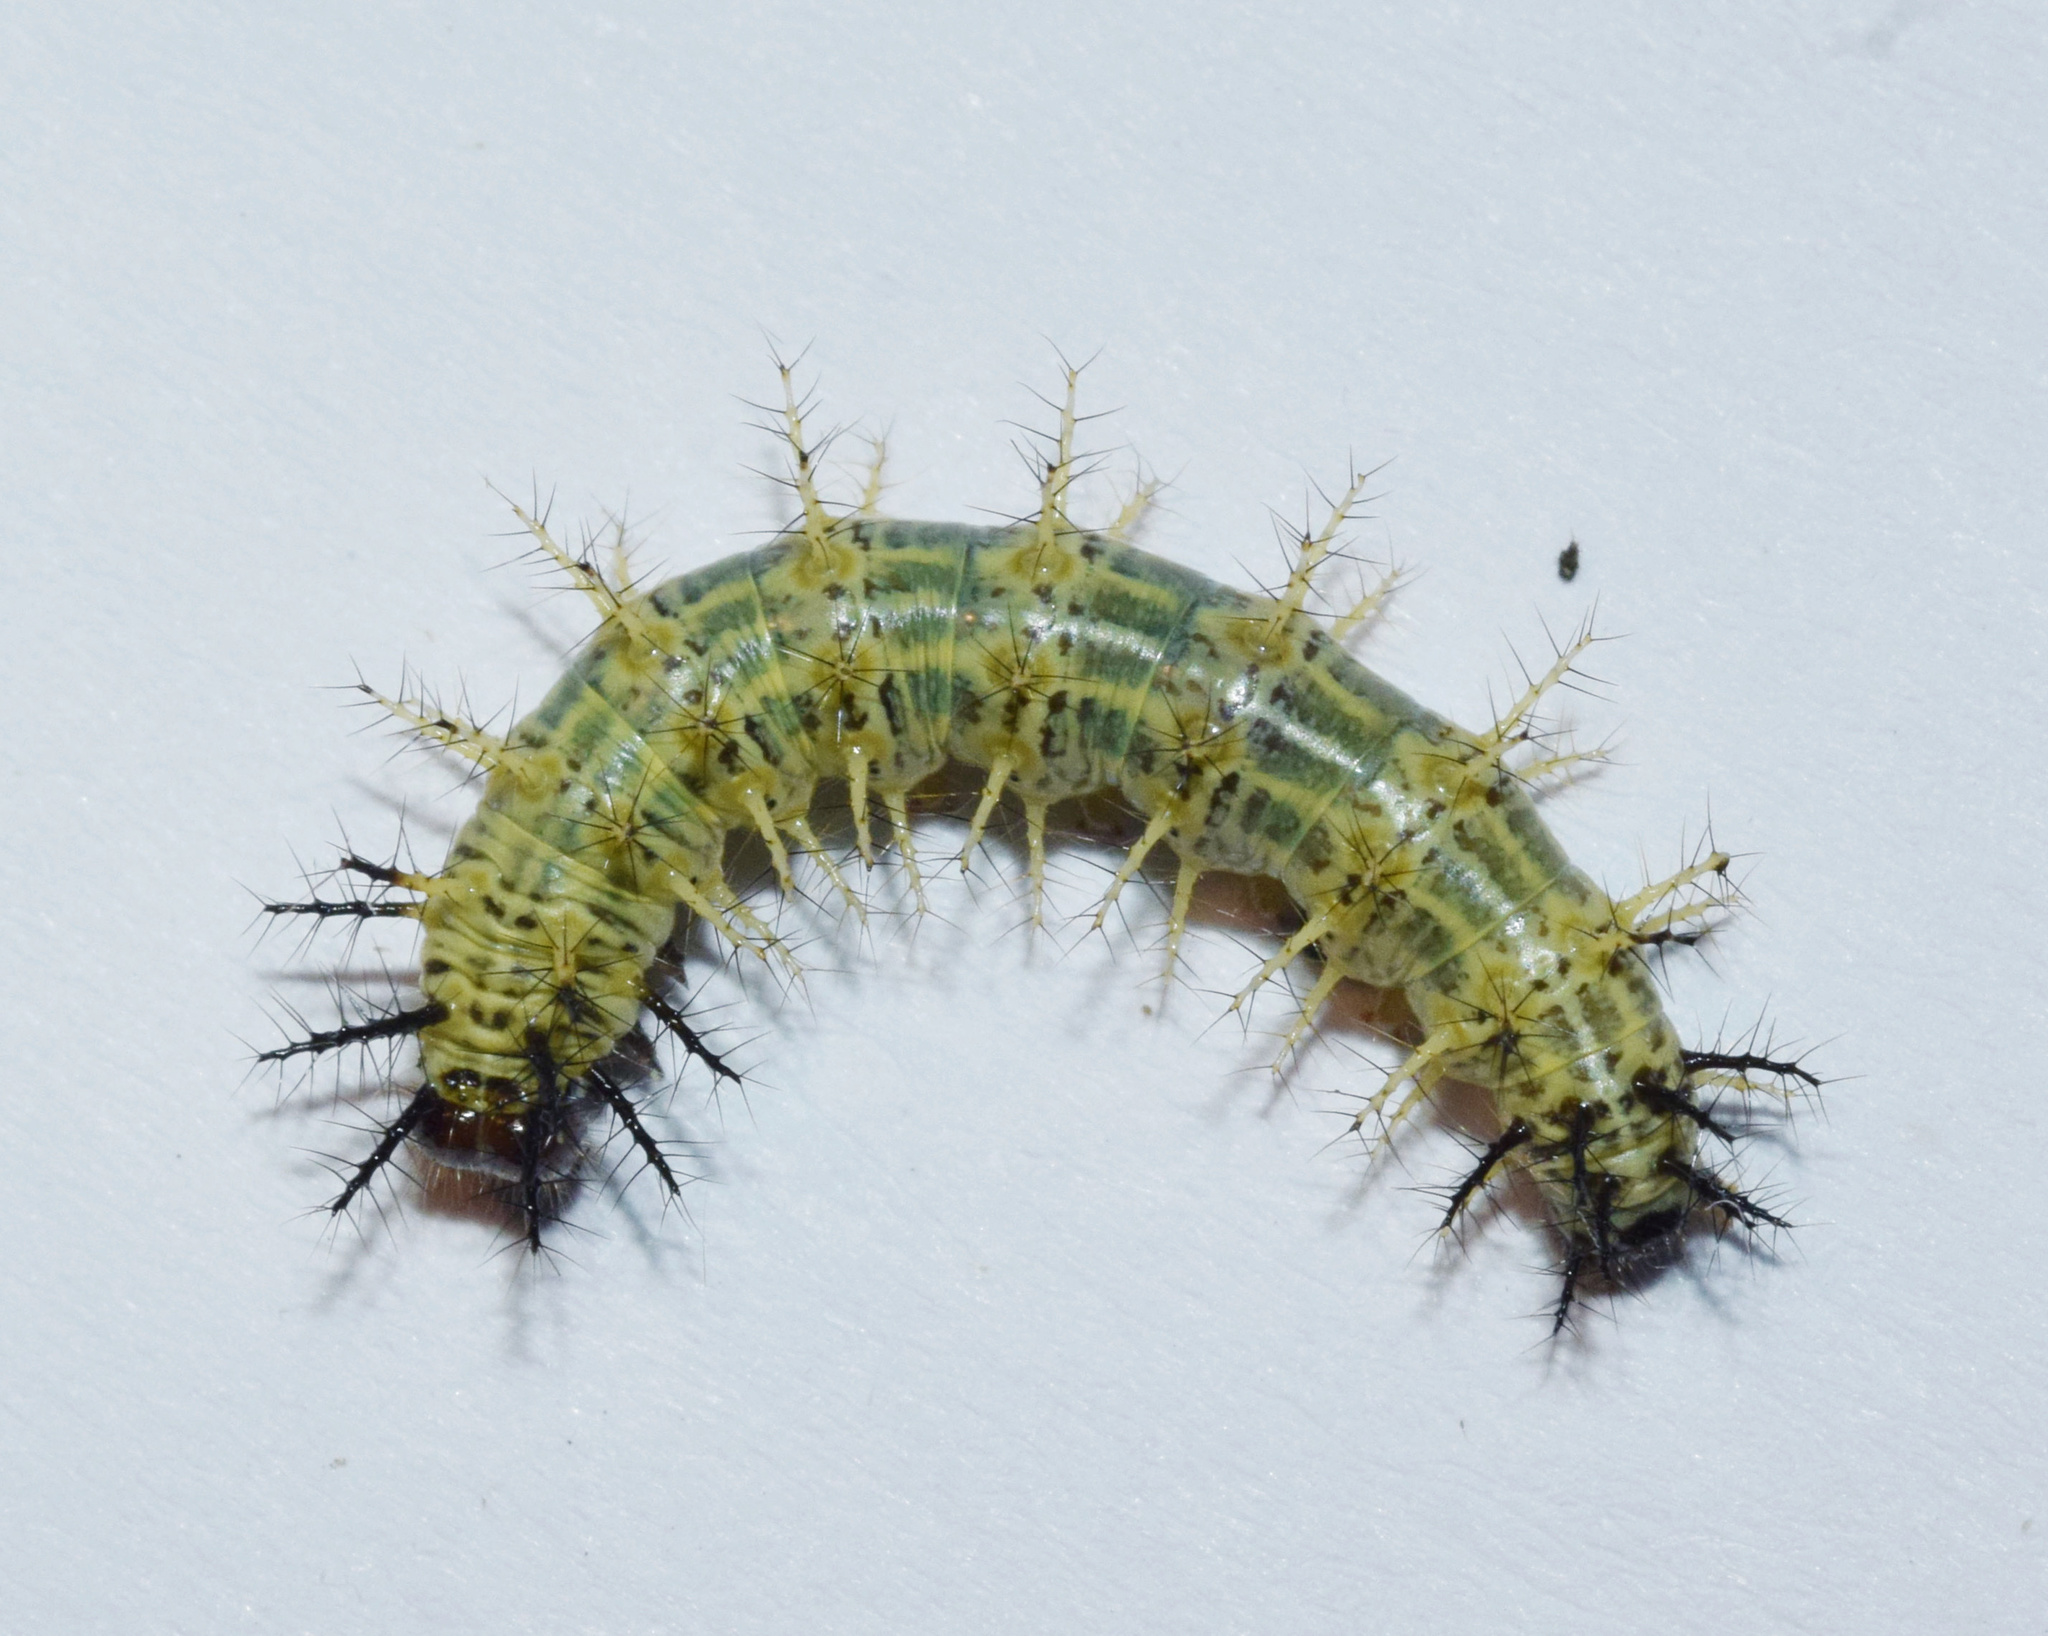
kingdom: Animalia
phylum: Arthropoda
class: Insecta
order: Lepidoptera
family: Nymphalidae
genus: Acraea
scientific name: Acraea cabira
